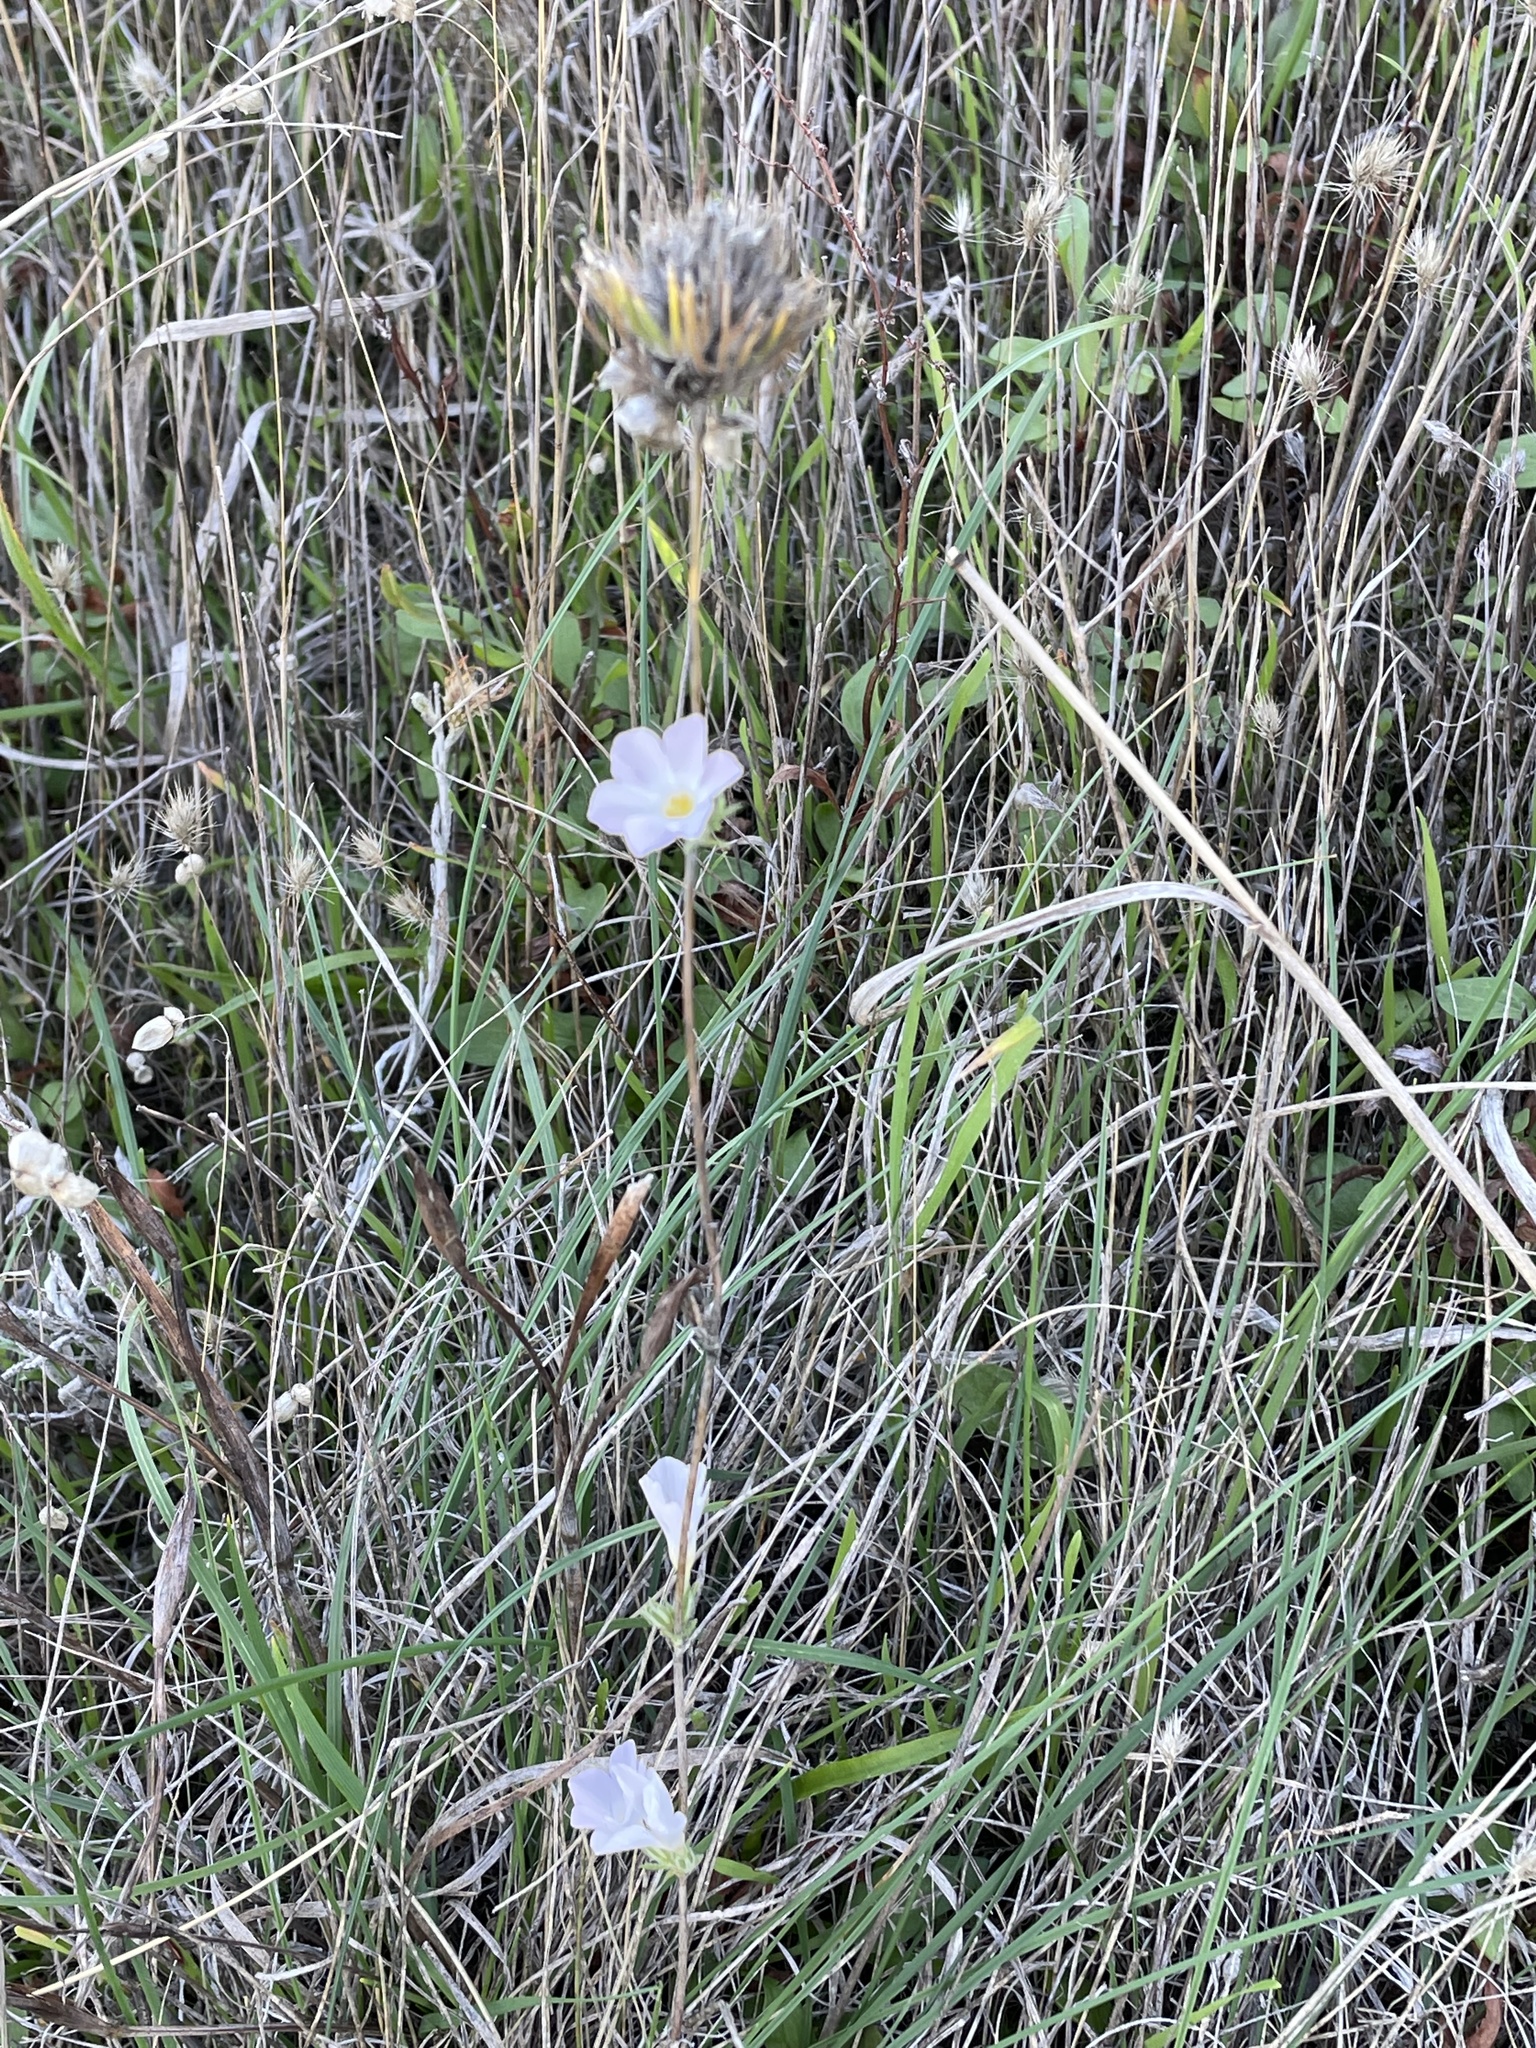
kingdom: Plantae
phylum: Tracheophyta
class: Magnoliopsida
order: Ericales
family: Polemoniaceae
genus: Leptosiphon
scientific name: Leptosiphon grandiflorus
